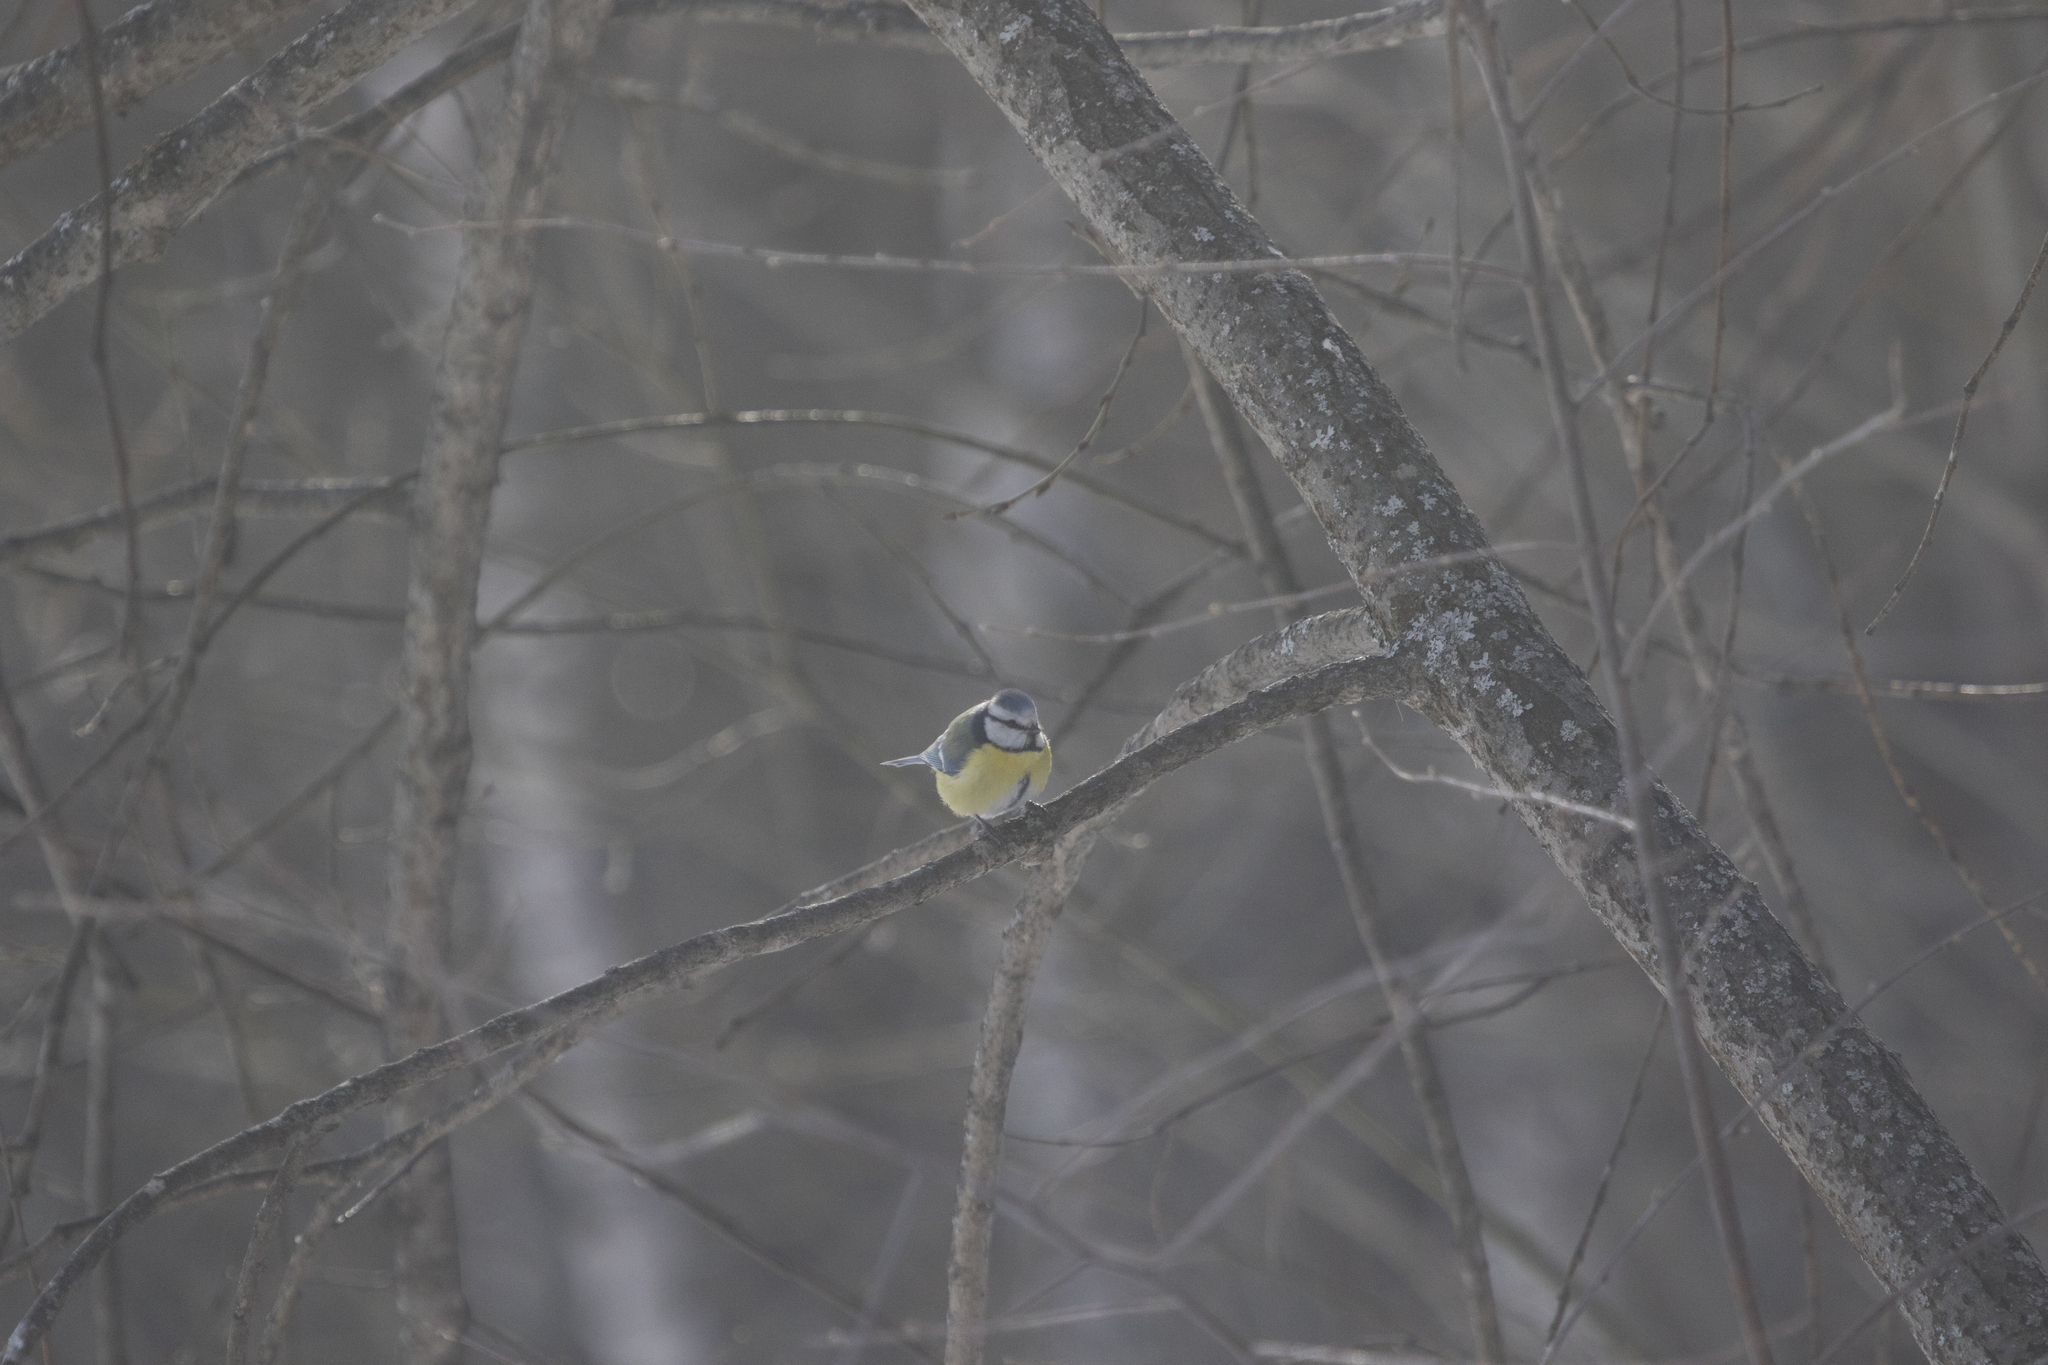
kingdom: Animalia
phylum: Chordata
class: Aves
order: Passeriformes
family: Paridae
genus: Cyanistes
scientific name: Cyanistes caeruleus
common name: Eurasian blue tit
